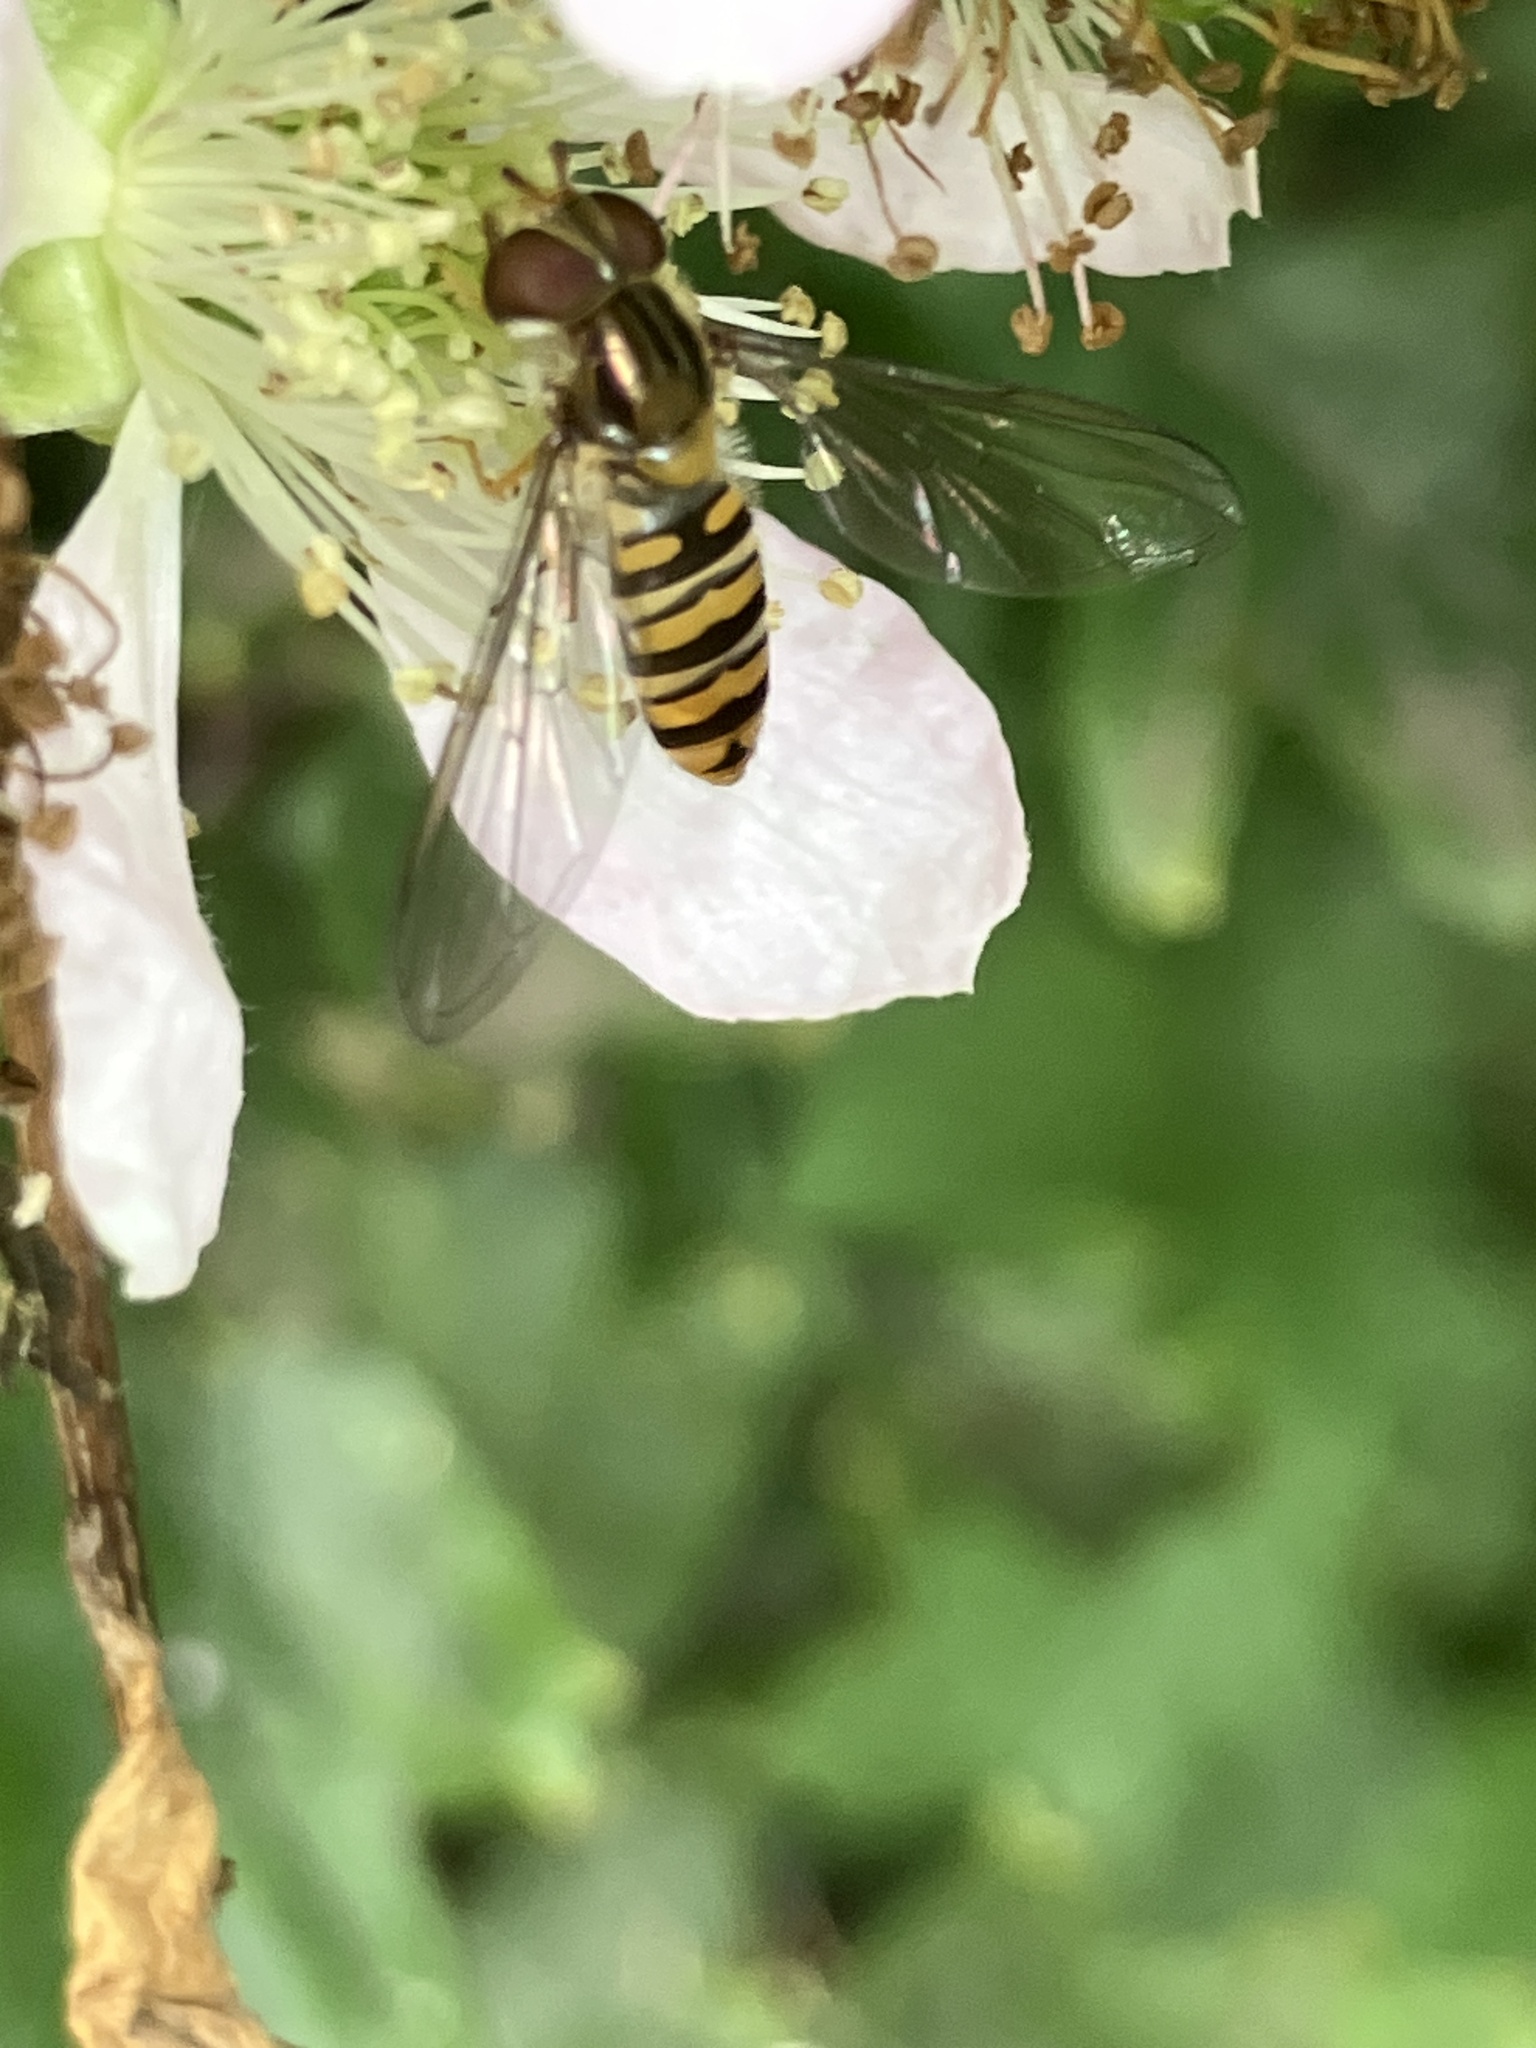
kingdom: Animalia
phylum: Arthropoda
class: Insecta
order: Diptera
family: Syrphidae
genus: Episyrphus
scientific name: Episyrphus balteatus
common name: Marmalade hoverfly
